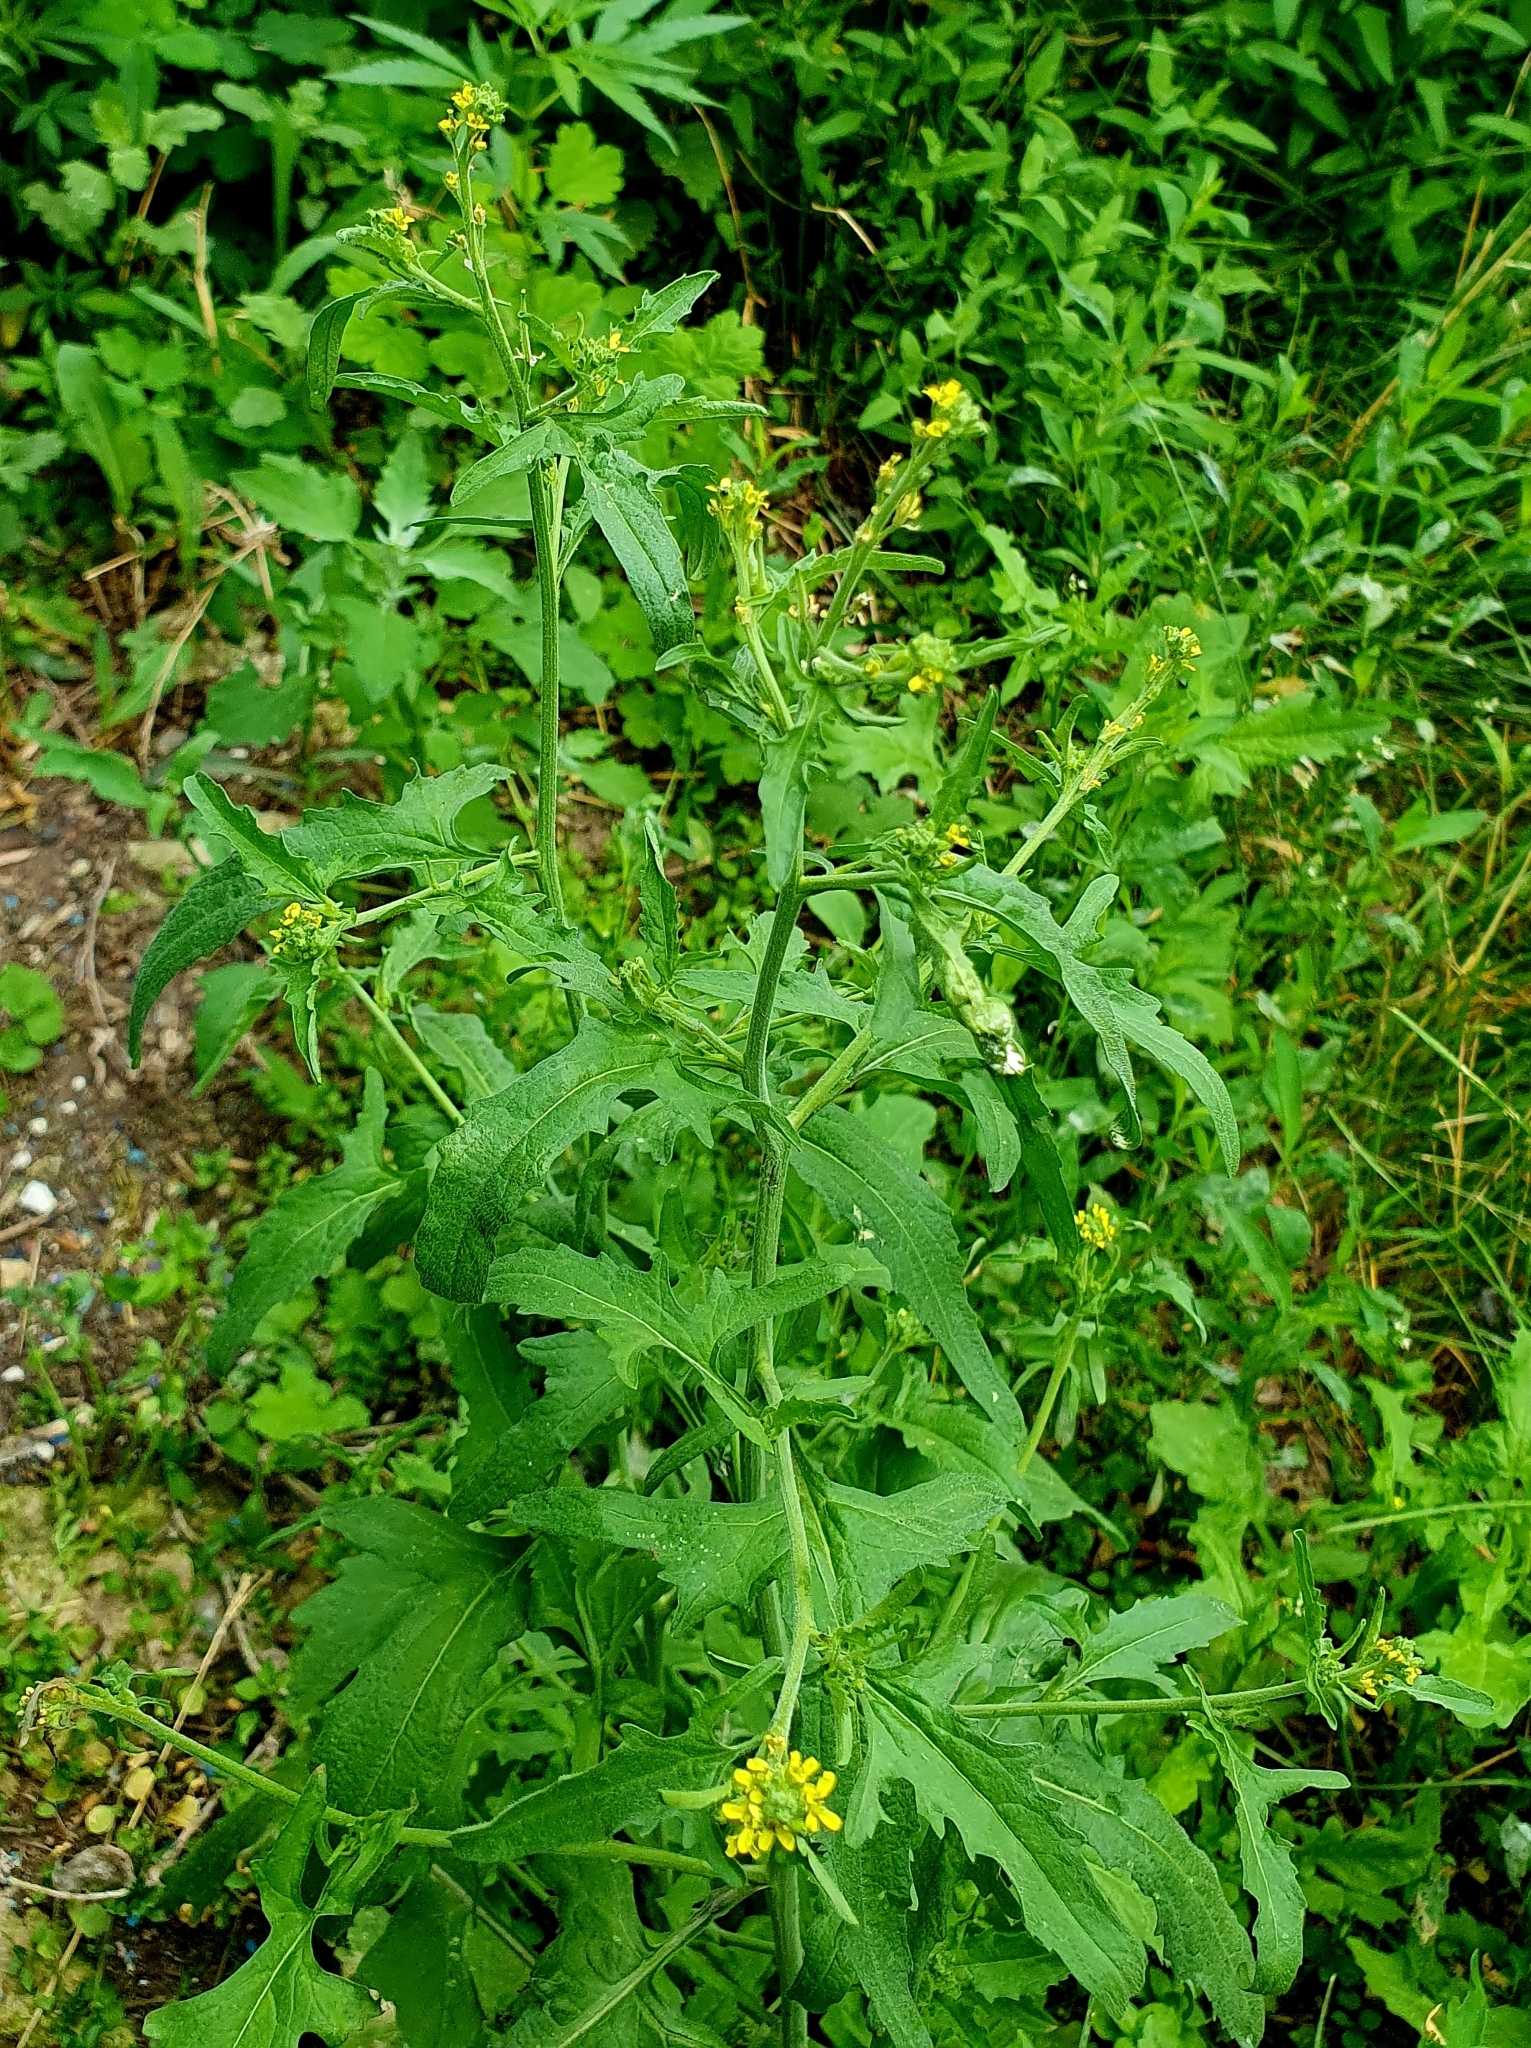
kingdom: Plantae
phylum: Tracheophyta
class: Magnoliopsida
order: Brassicales
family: Brassicaceae
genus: Sisymbrium
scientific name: Sisymbrium officinale
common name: Hedge mustard
